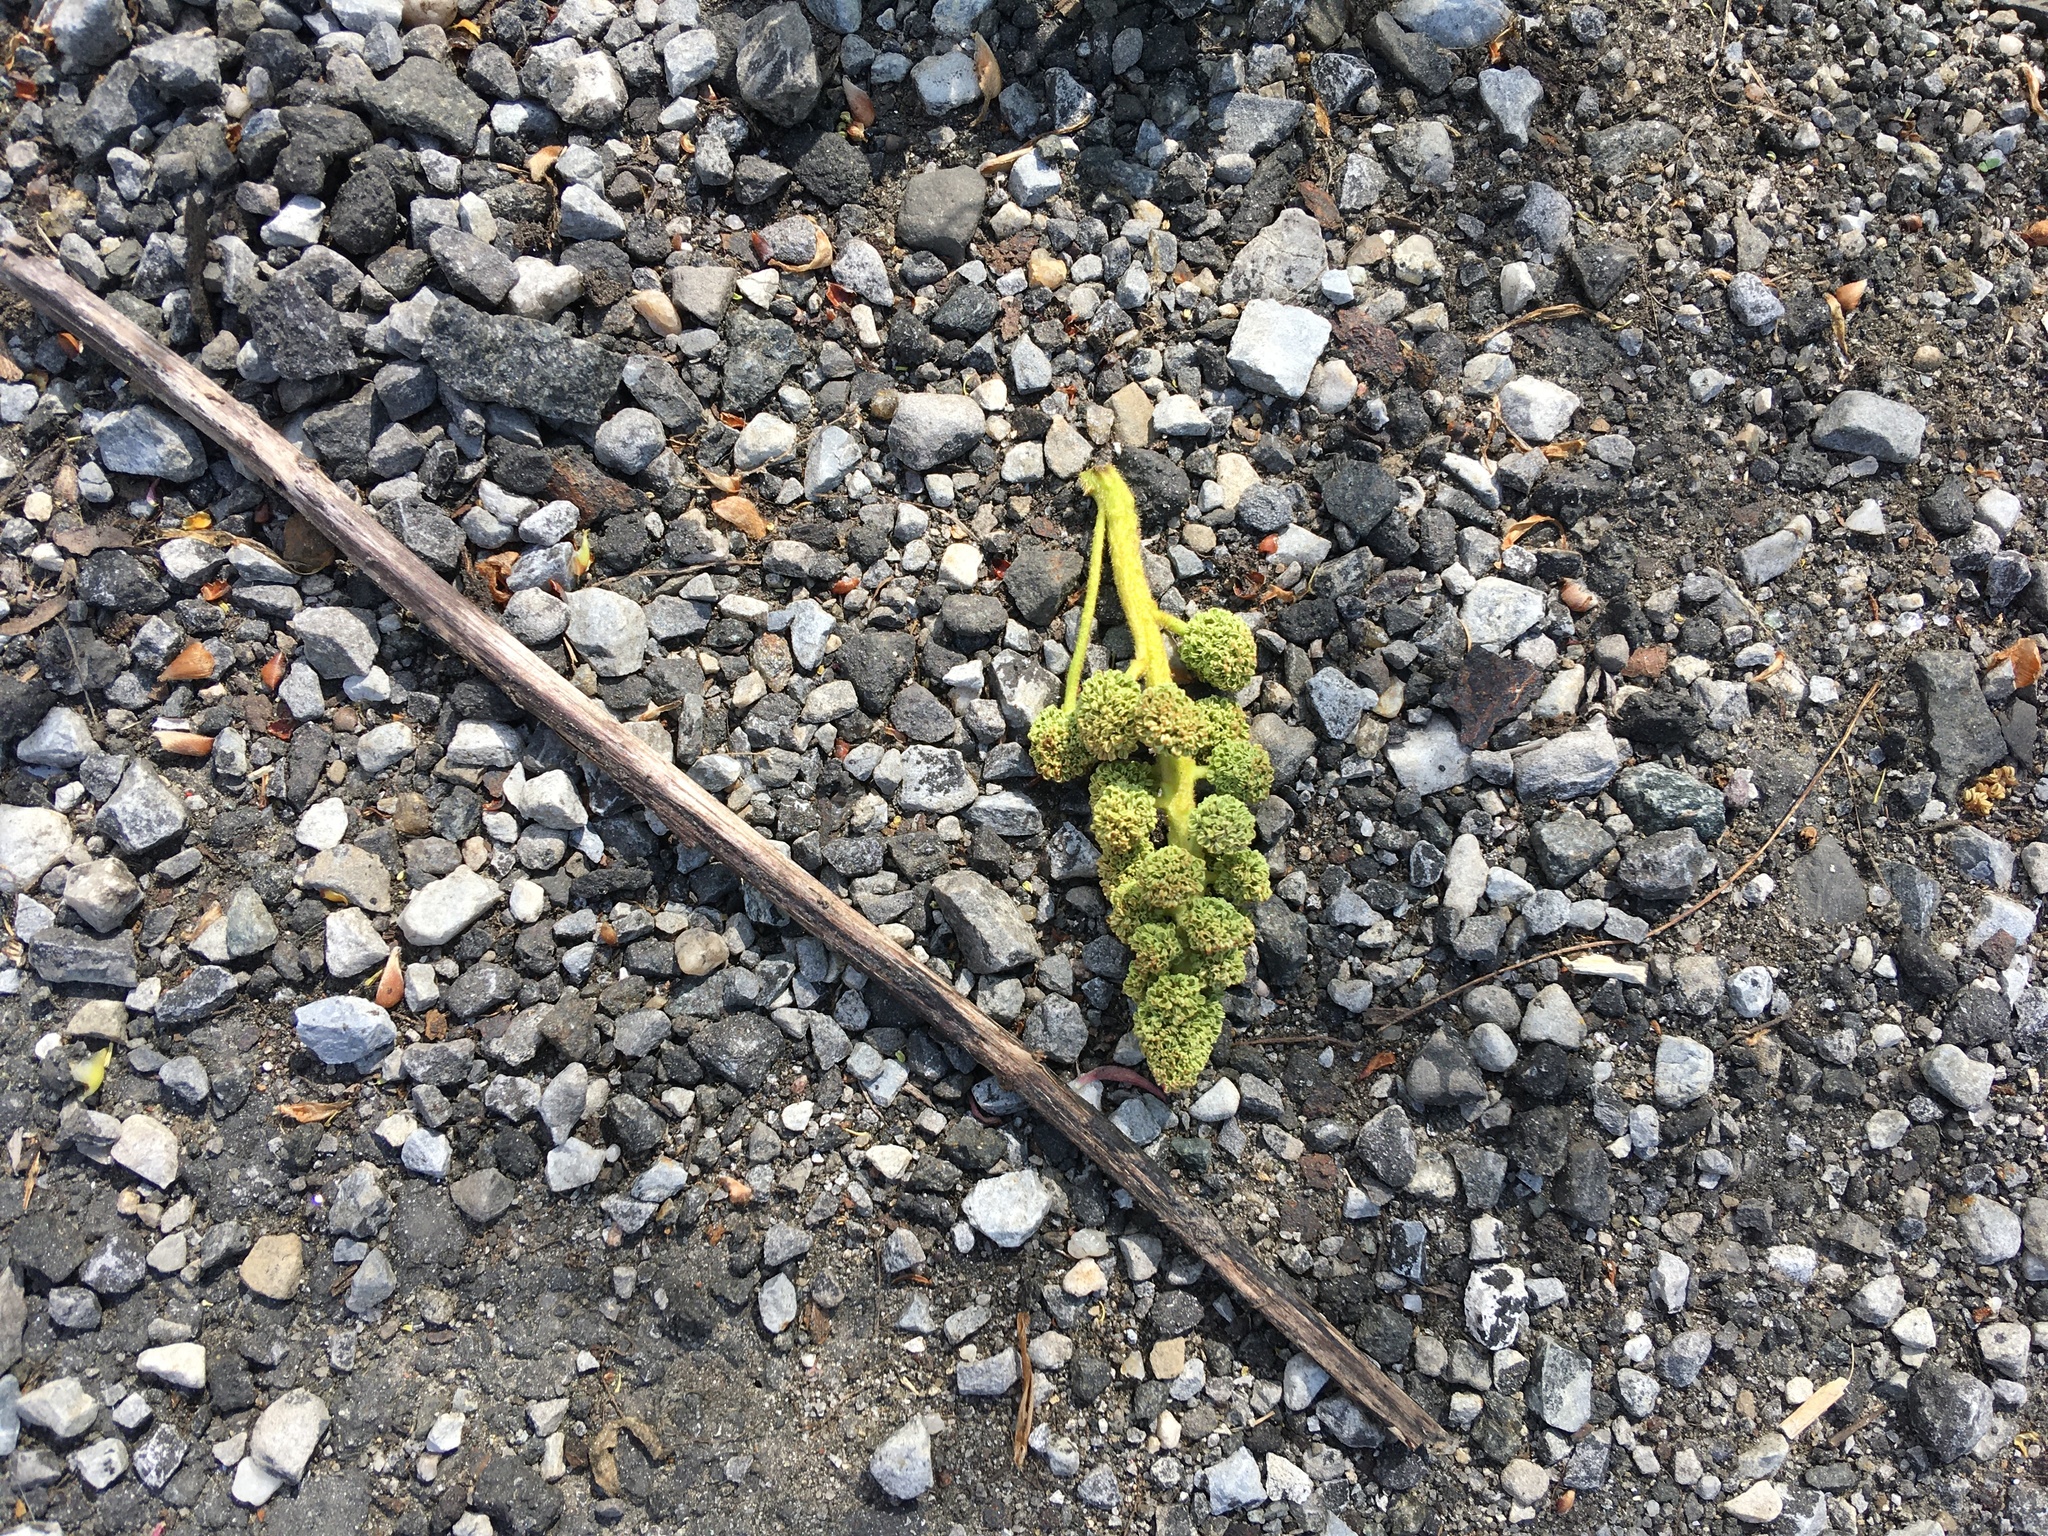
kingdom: Plantae
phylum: Tracheophyta
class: Magnoliopsida
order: Saxifragales
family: Altingiaceae
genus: Liquidambar
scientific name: Liquidambar styraciflua
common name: Sweet gum
